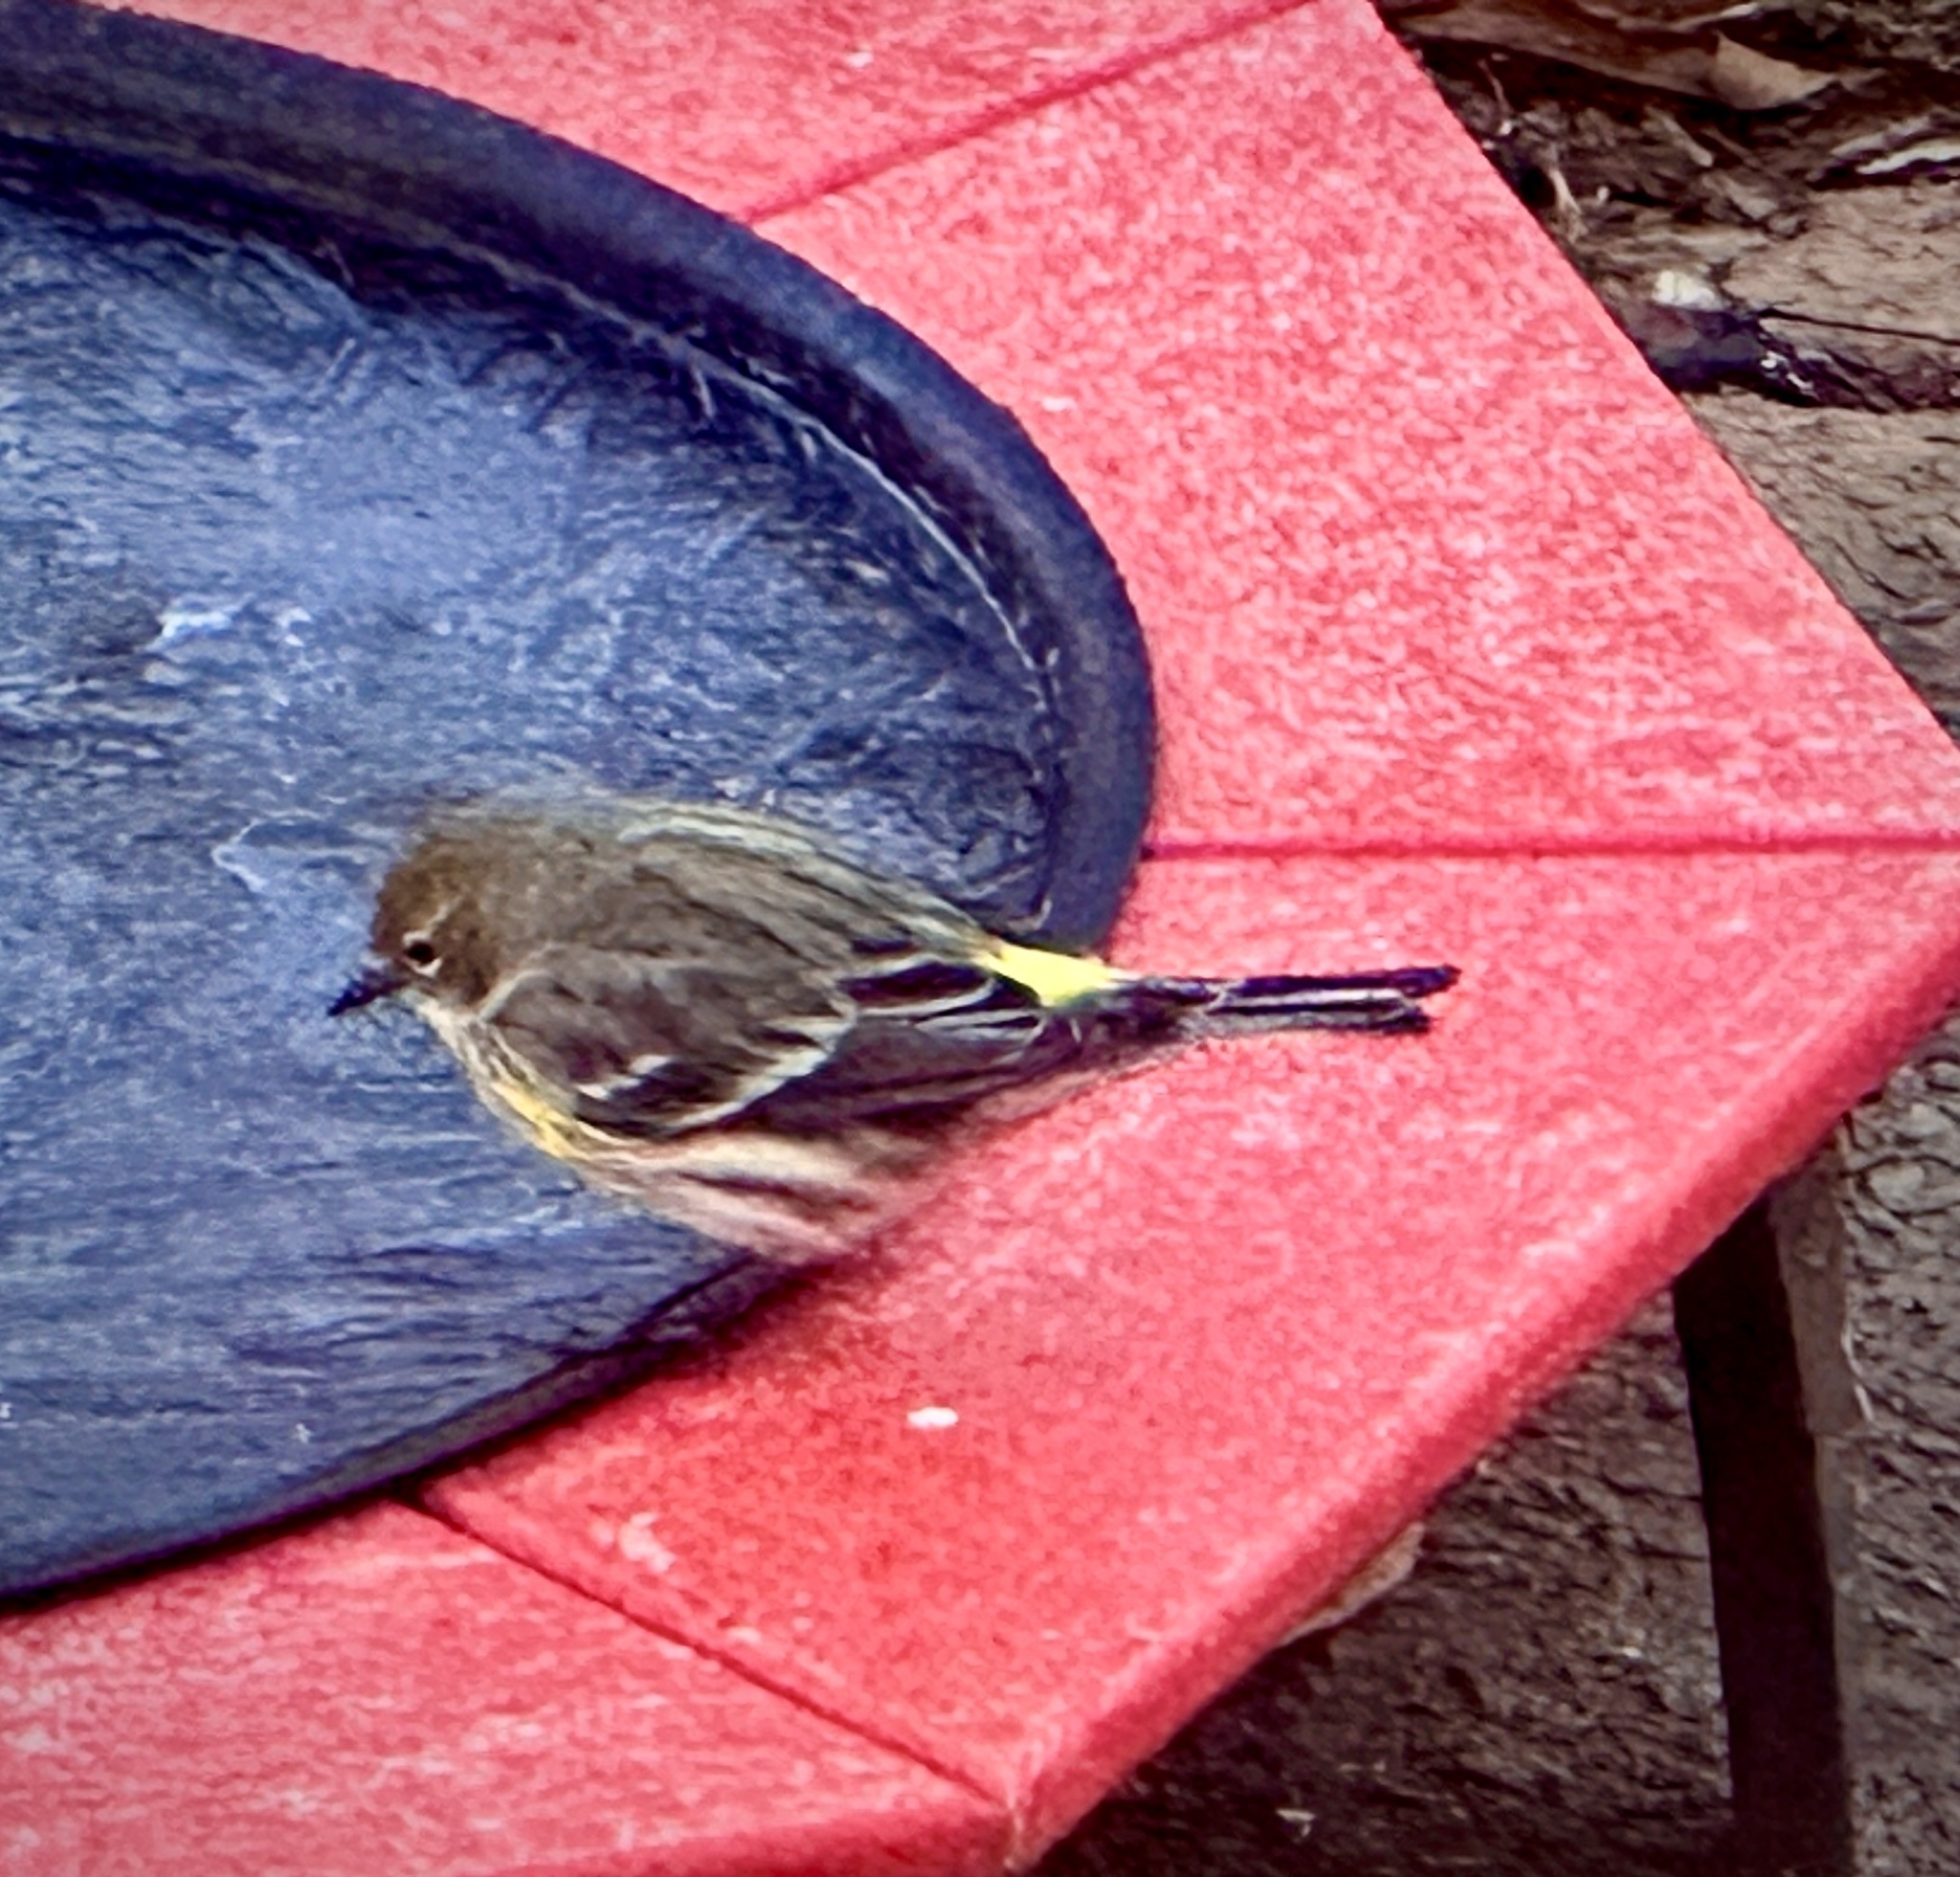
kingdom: Animalia
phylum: Chordata
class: Aves
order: Passeriformes
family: Parulidae
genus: Setophaga
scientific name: Setophaga coronata
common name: Myrtle warbler
